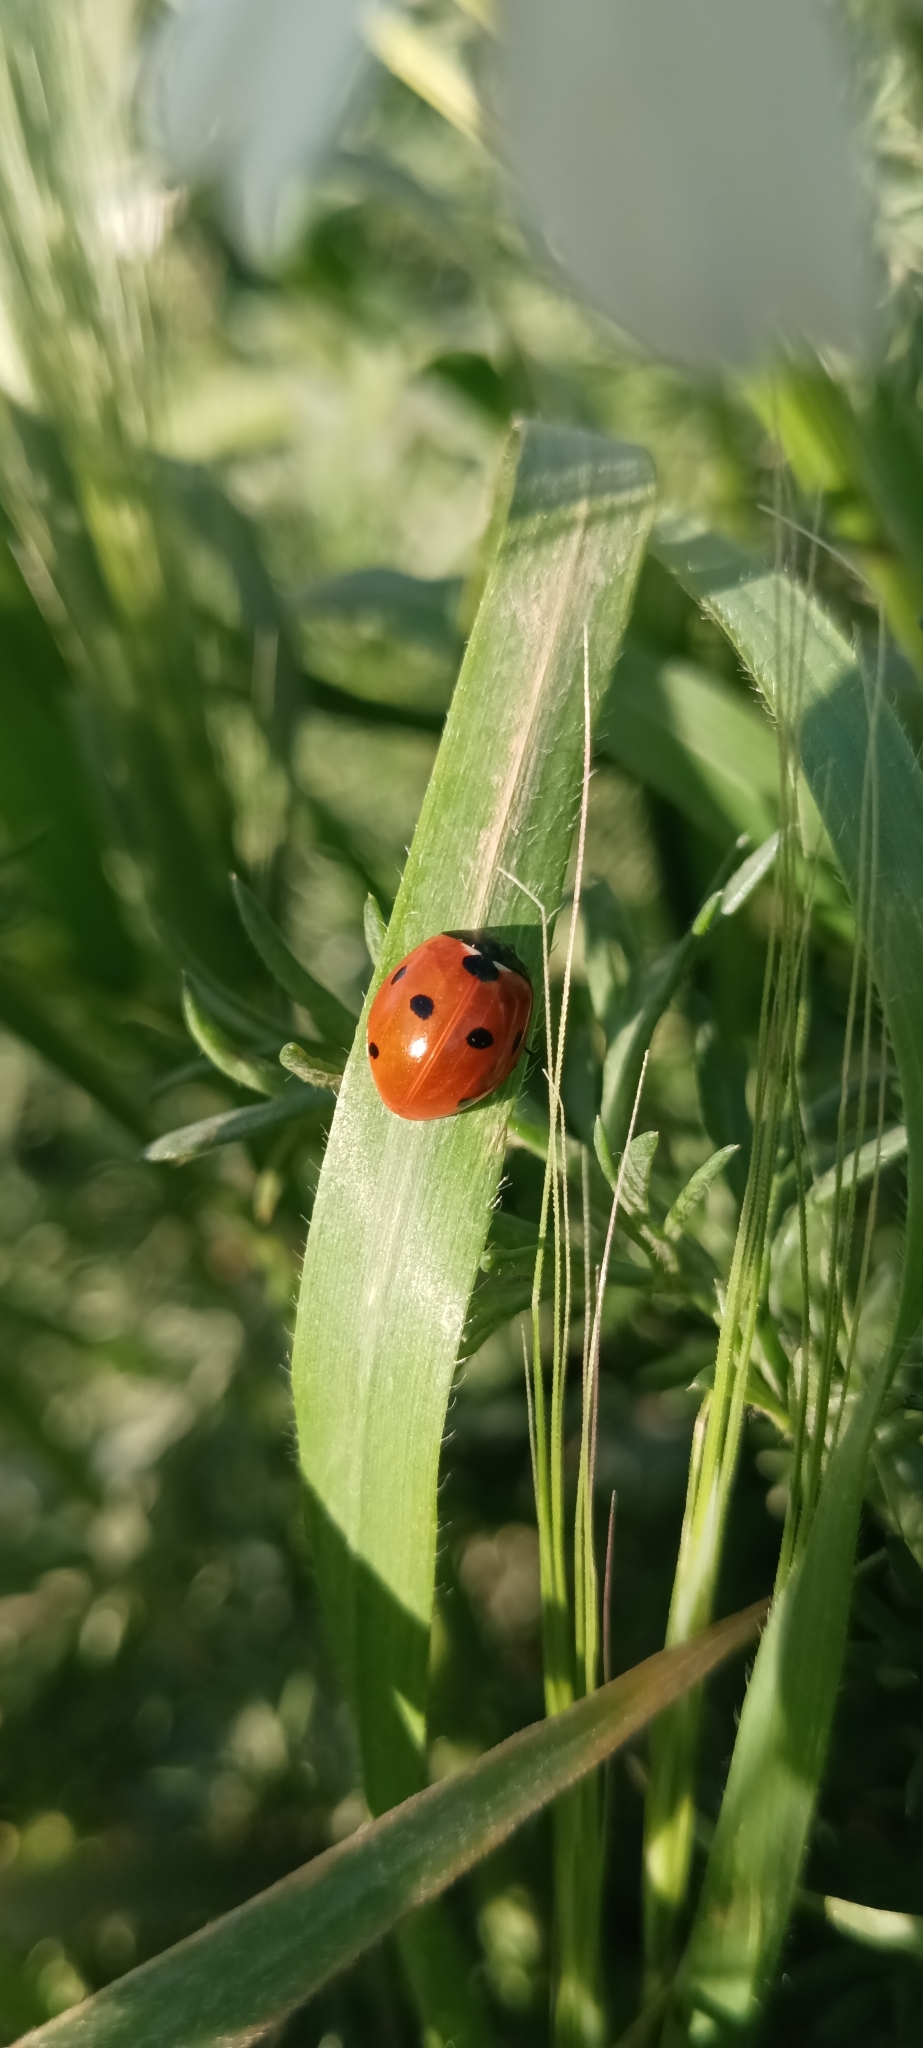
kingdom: Animalia
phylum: Arthropoda
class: Insecta
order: Coleoptera
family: Coccinellidae
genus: Coccinella
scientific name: Coccinella septempunctata
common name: Sevenspotted lady beetle
